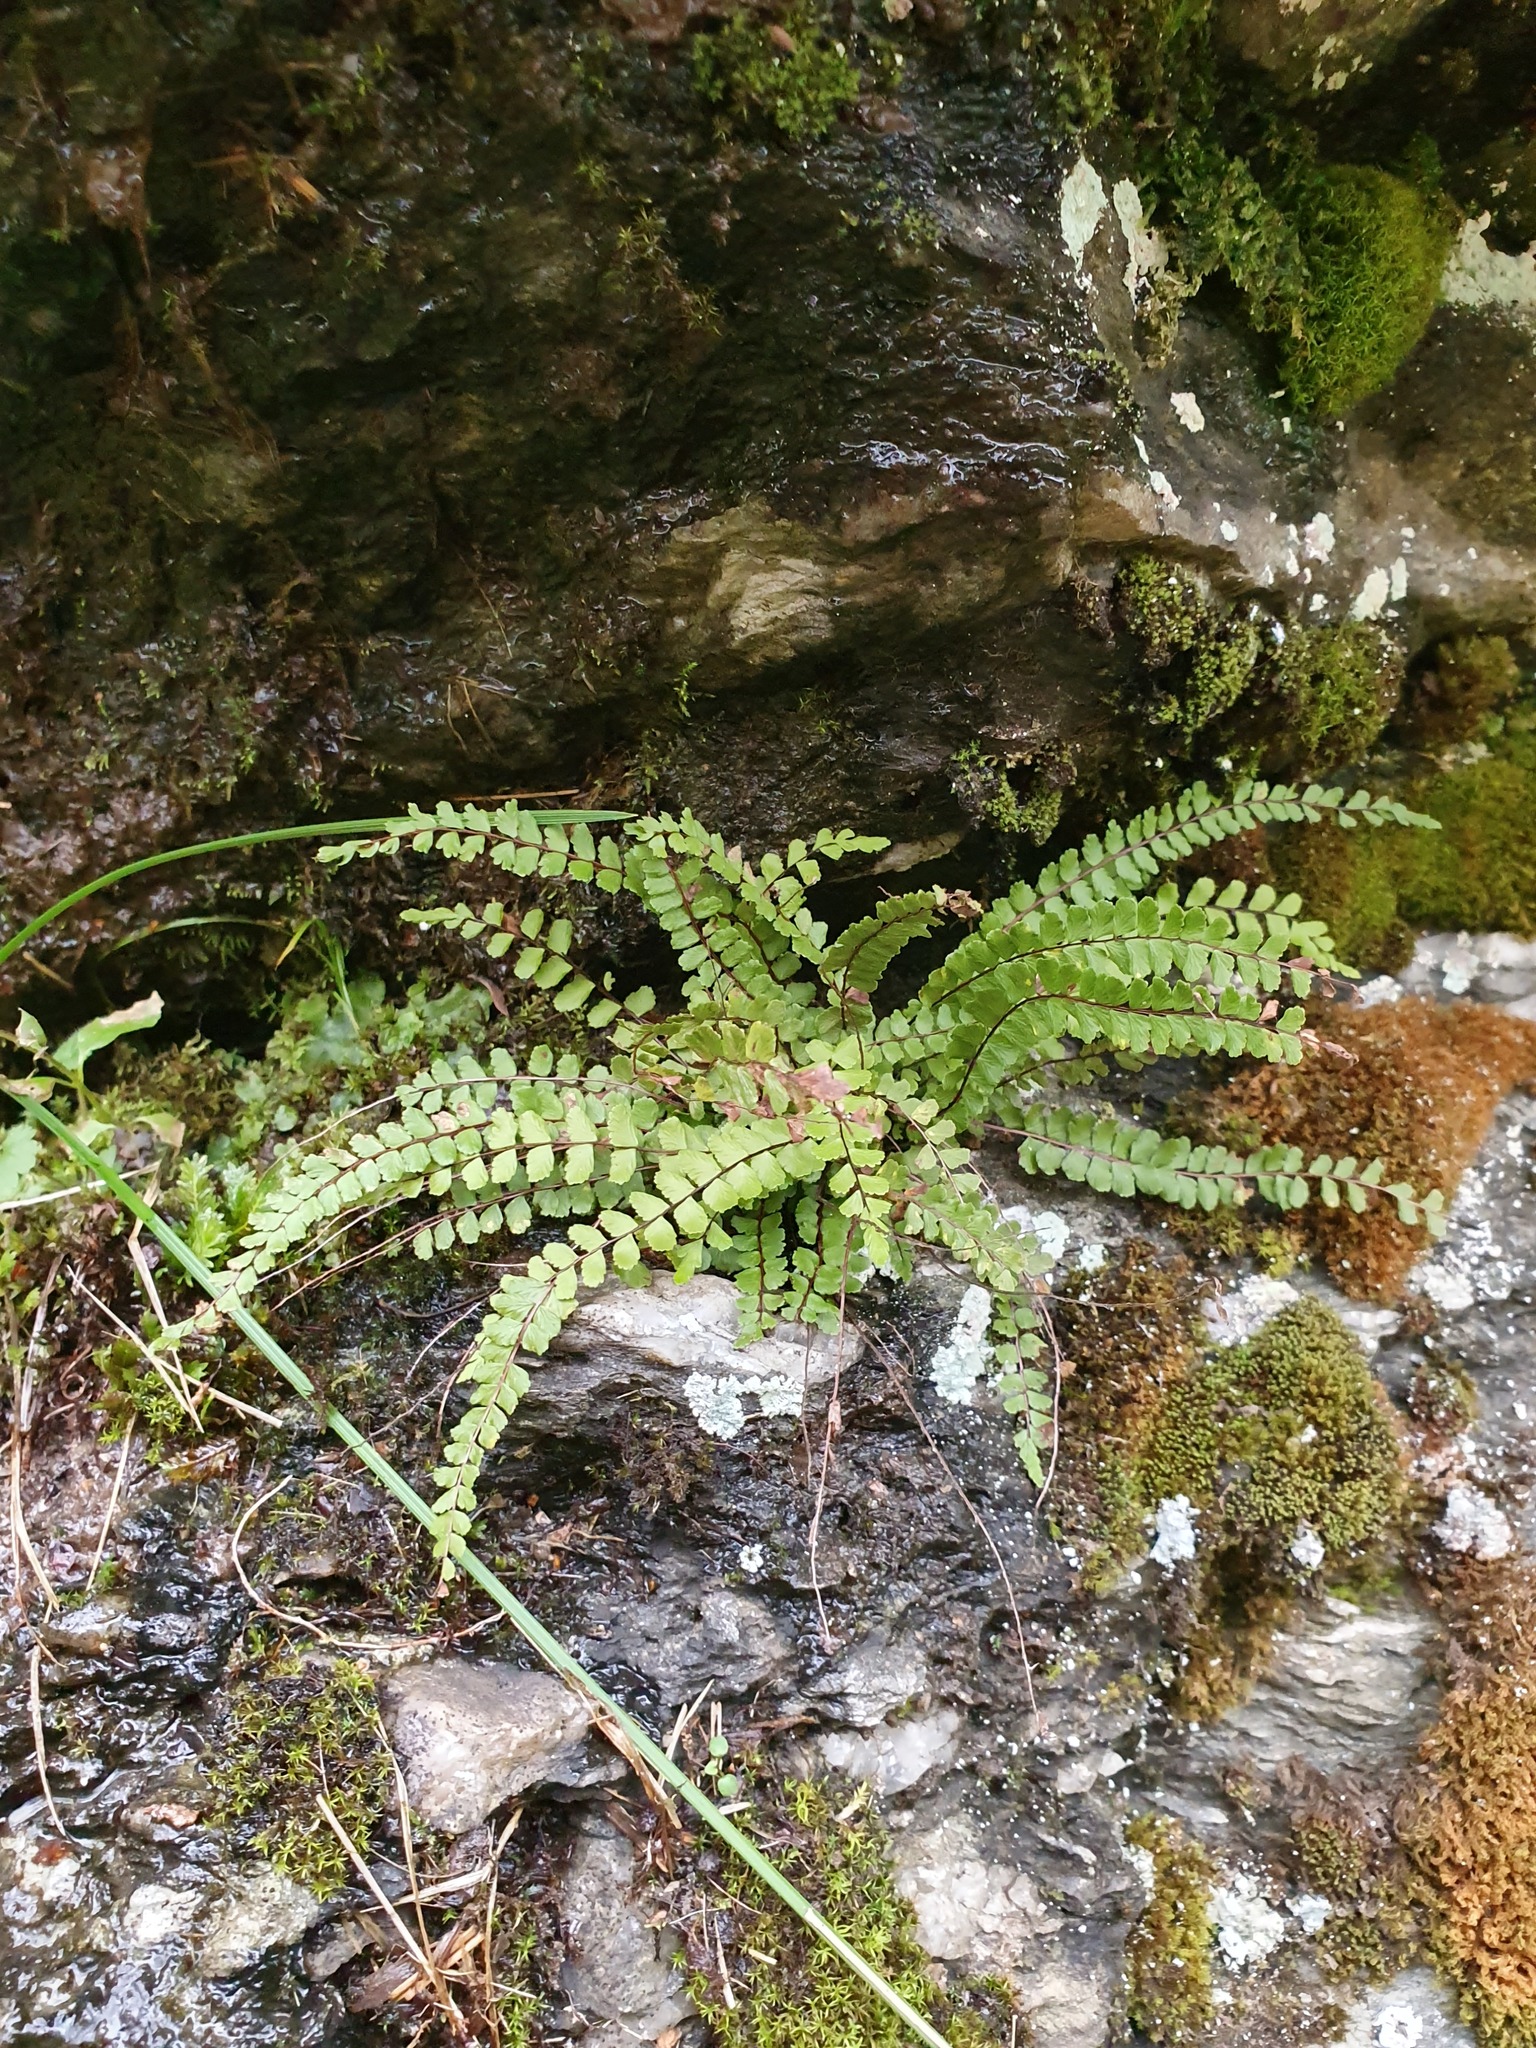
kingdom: Plantae
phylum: Tracheophyta
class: Polypodiopsida
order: Polypodiales
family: Aspleniaceae
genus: Asplenium
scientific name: Asplenium trichomanes
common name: Maidenhair spleenwort
